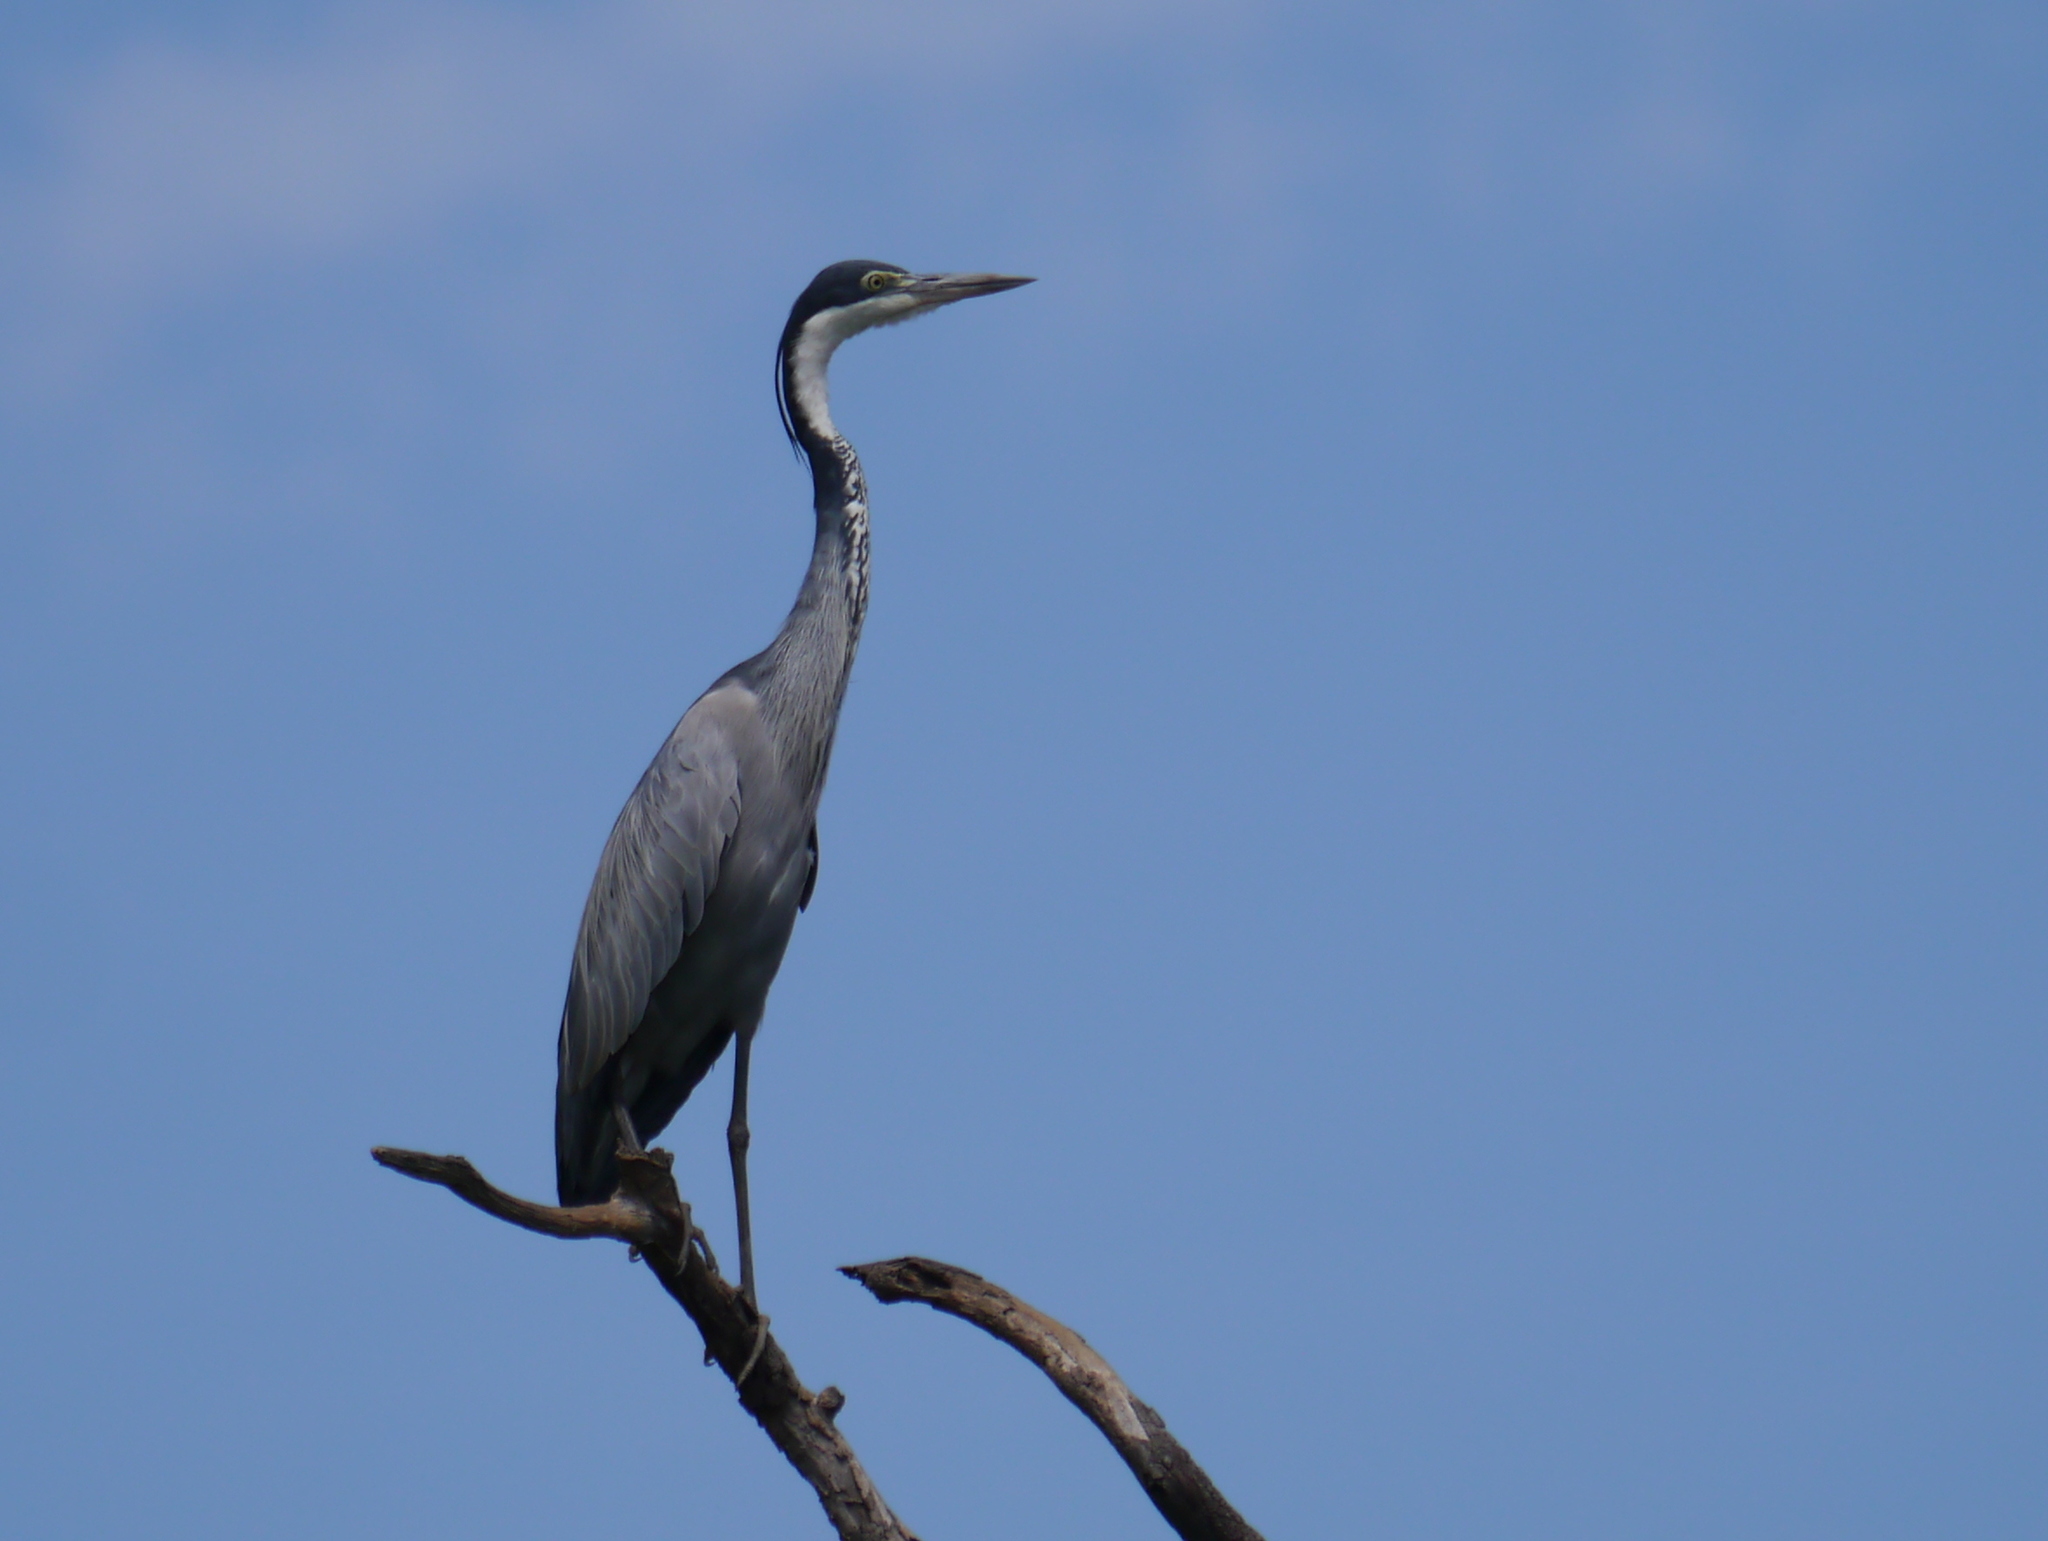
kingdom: Animalia
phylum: Chordata
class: Aves
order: Pelecaniformes
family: Ardeidae
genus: Ardea
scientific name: Ardea melanocephala
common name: Black-headed heron
